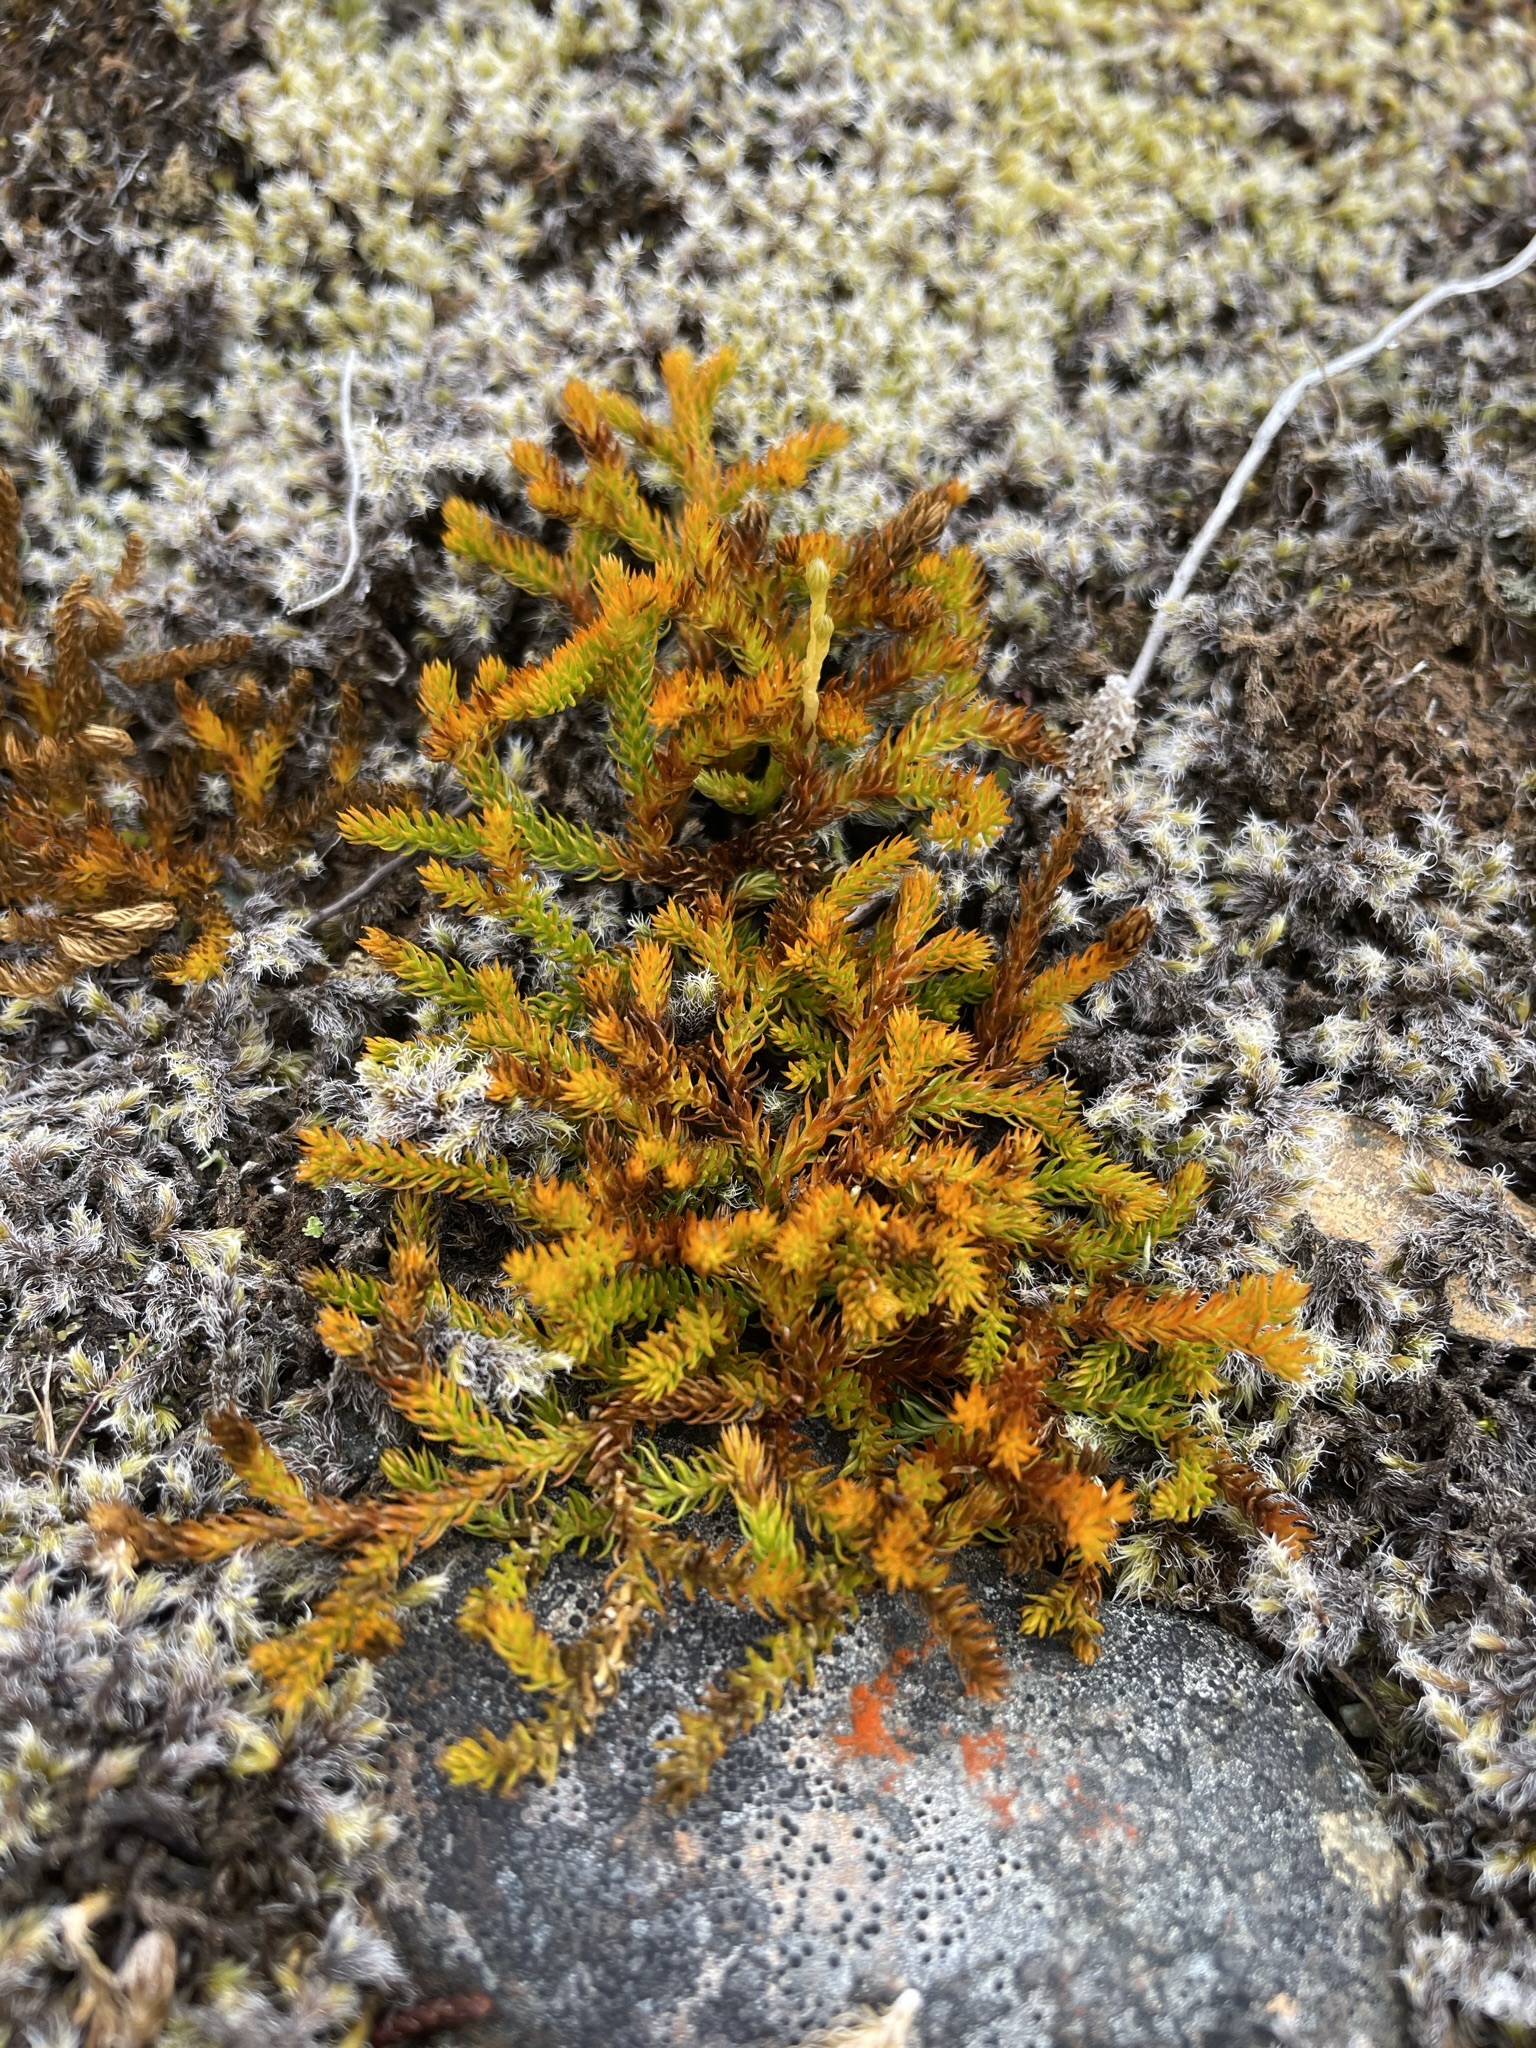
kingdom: Plantae
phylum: Tracheophyta
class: Lycopodiopsida
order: Lycopodiales
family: Lycopodiaceae
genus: Austrolycopodium
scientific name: Austrolycopodium fastigiatum
